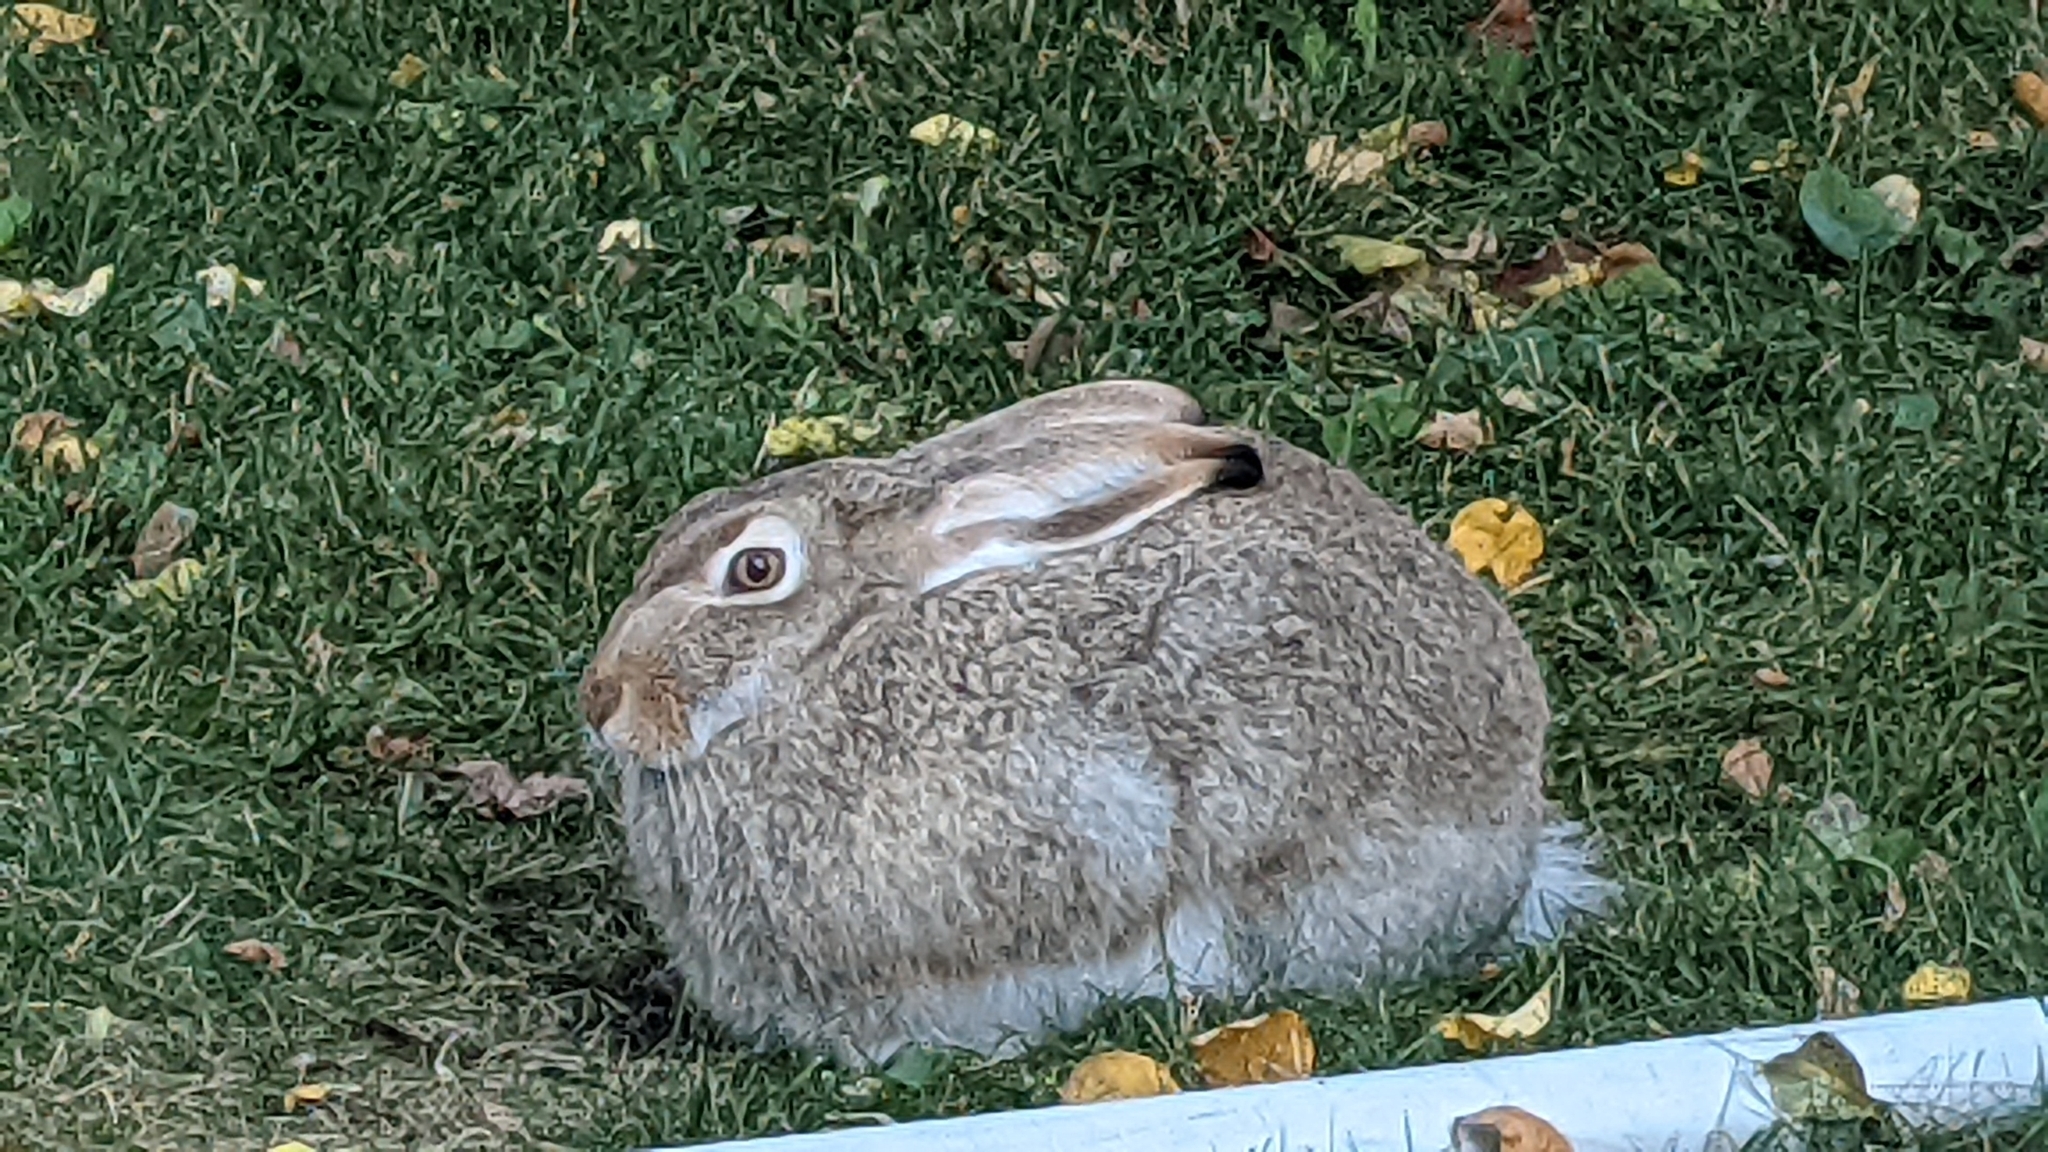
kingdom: Animalia
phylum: Chordata
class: Mammalia
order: Lagomorpha
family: Leporidae
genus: Lepus
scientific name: Lepus townsendii
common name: White-tailed jackrabbit
